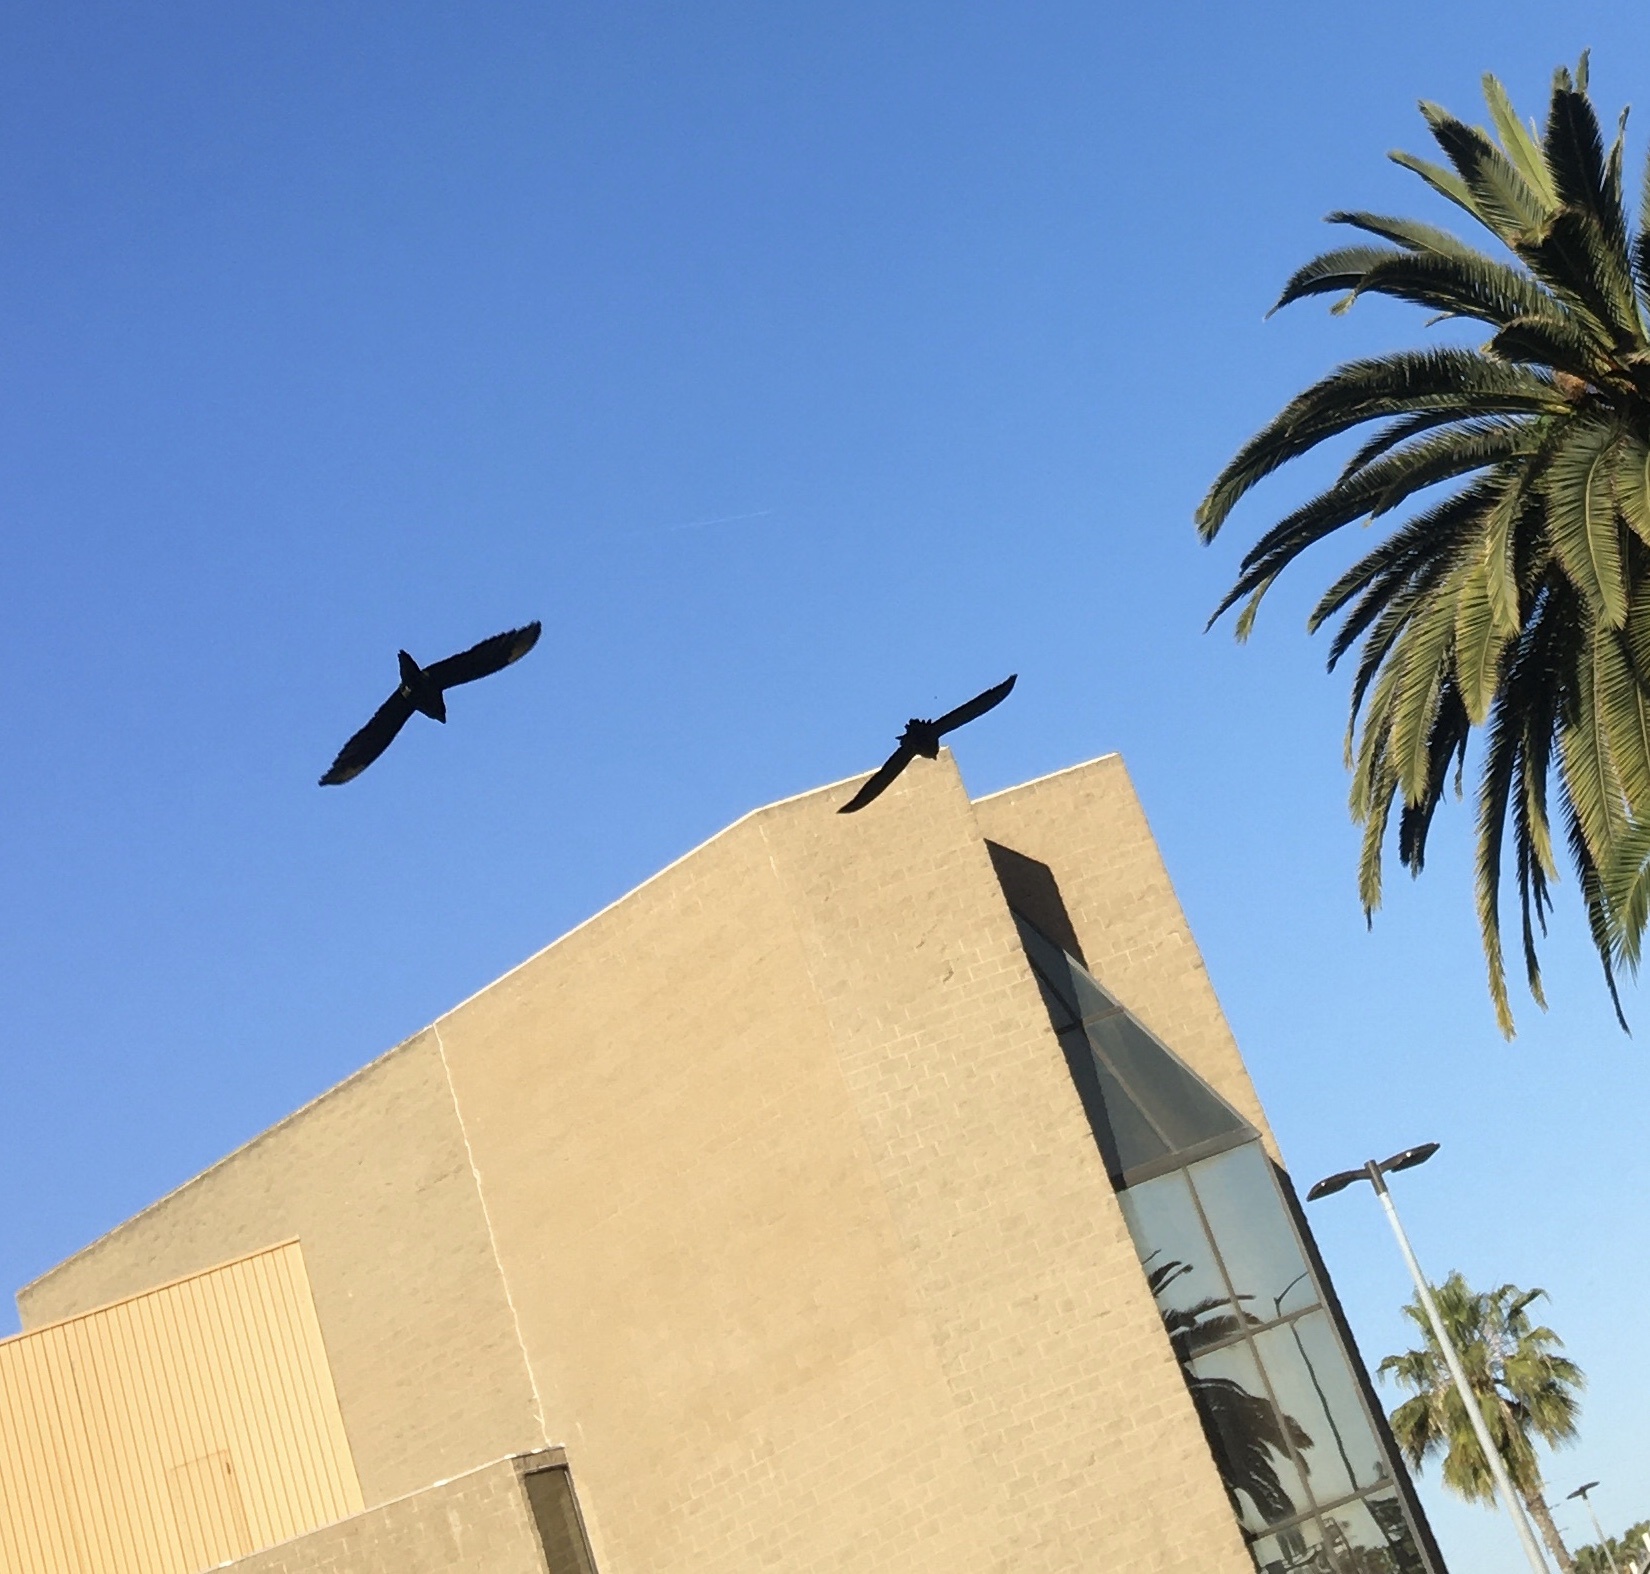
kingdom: Animalia
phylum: Chordata
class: Aves
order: Psittaciformes
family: Psittacidae
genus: Aratinga
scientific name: Aratinga mitrata
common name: Mitred parakeet
